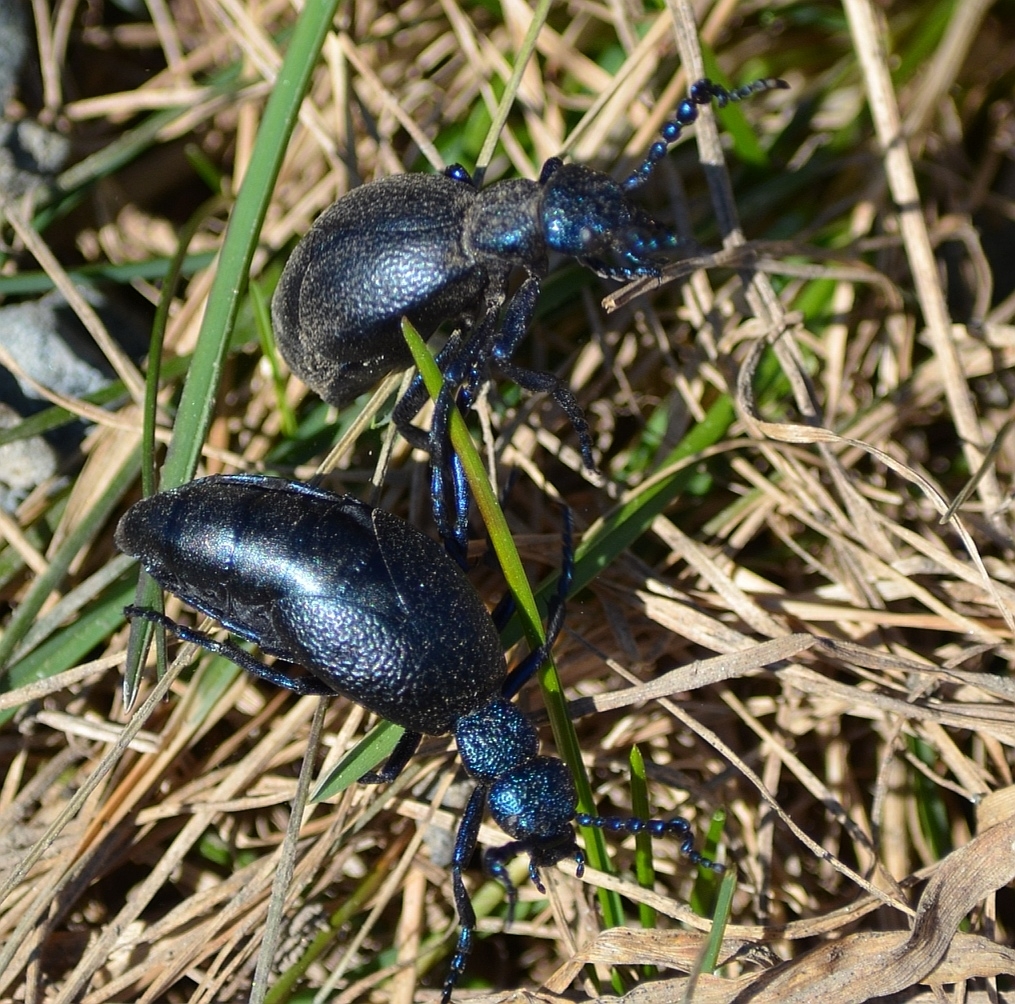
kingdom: Animalia
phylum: Arthropoda
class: Insecta
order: Coleoptera
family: Meloidae
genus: Meloe
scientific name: Meloe proscarabaeus
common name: Black oil-beetle
